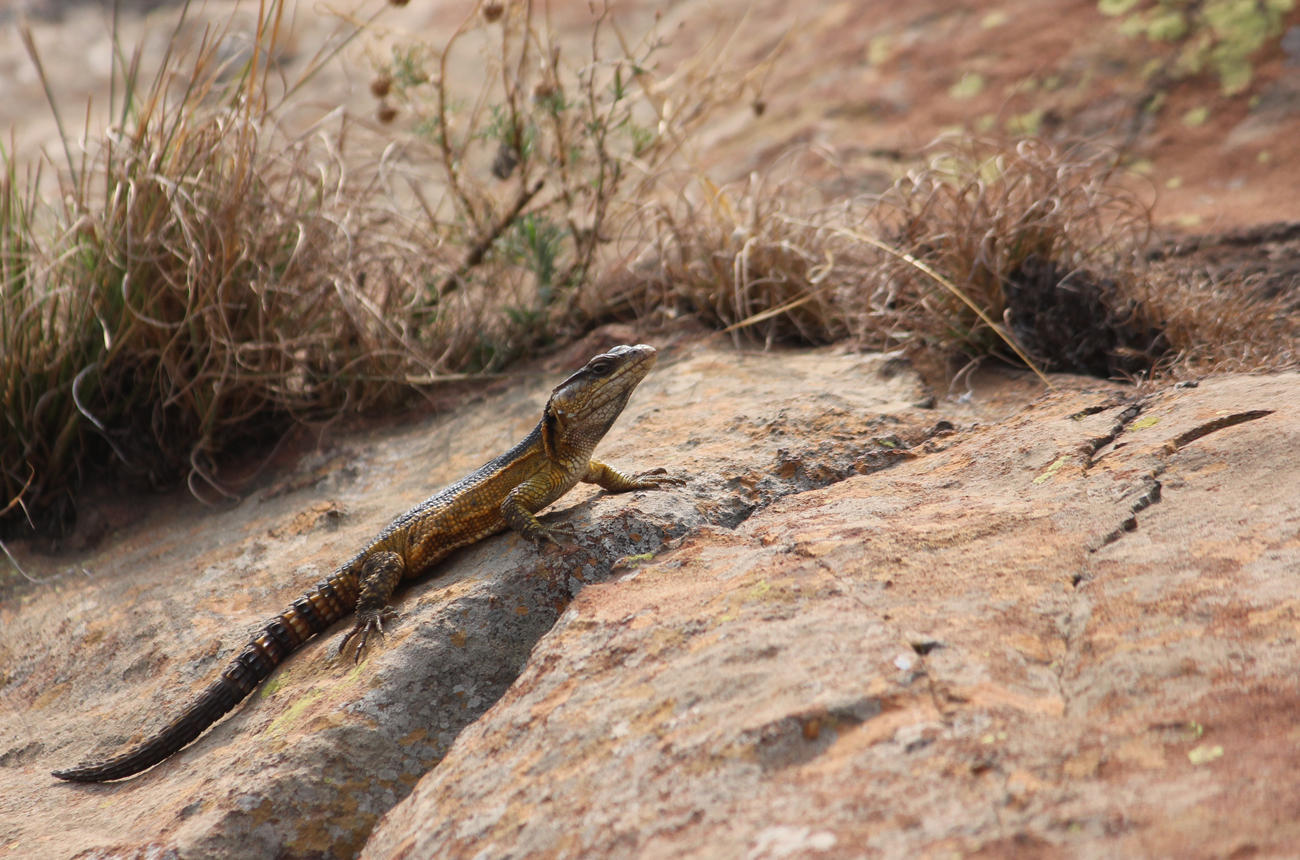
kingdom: Animalia
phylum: Chordata
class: Squamata
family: Cordylidae
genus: Pseudocordylus
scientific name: Pseudocordylus melanotus
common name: Highveld crag lizard
